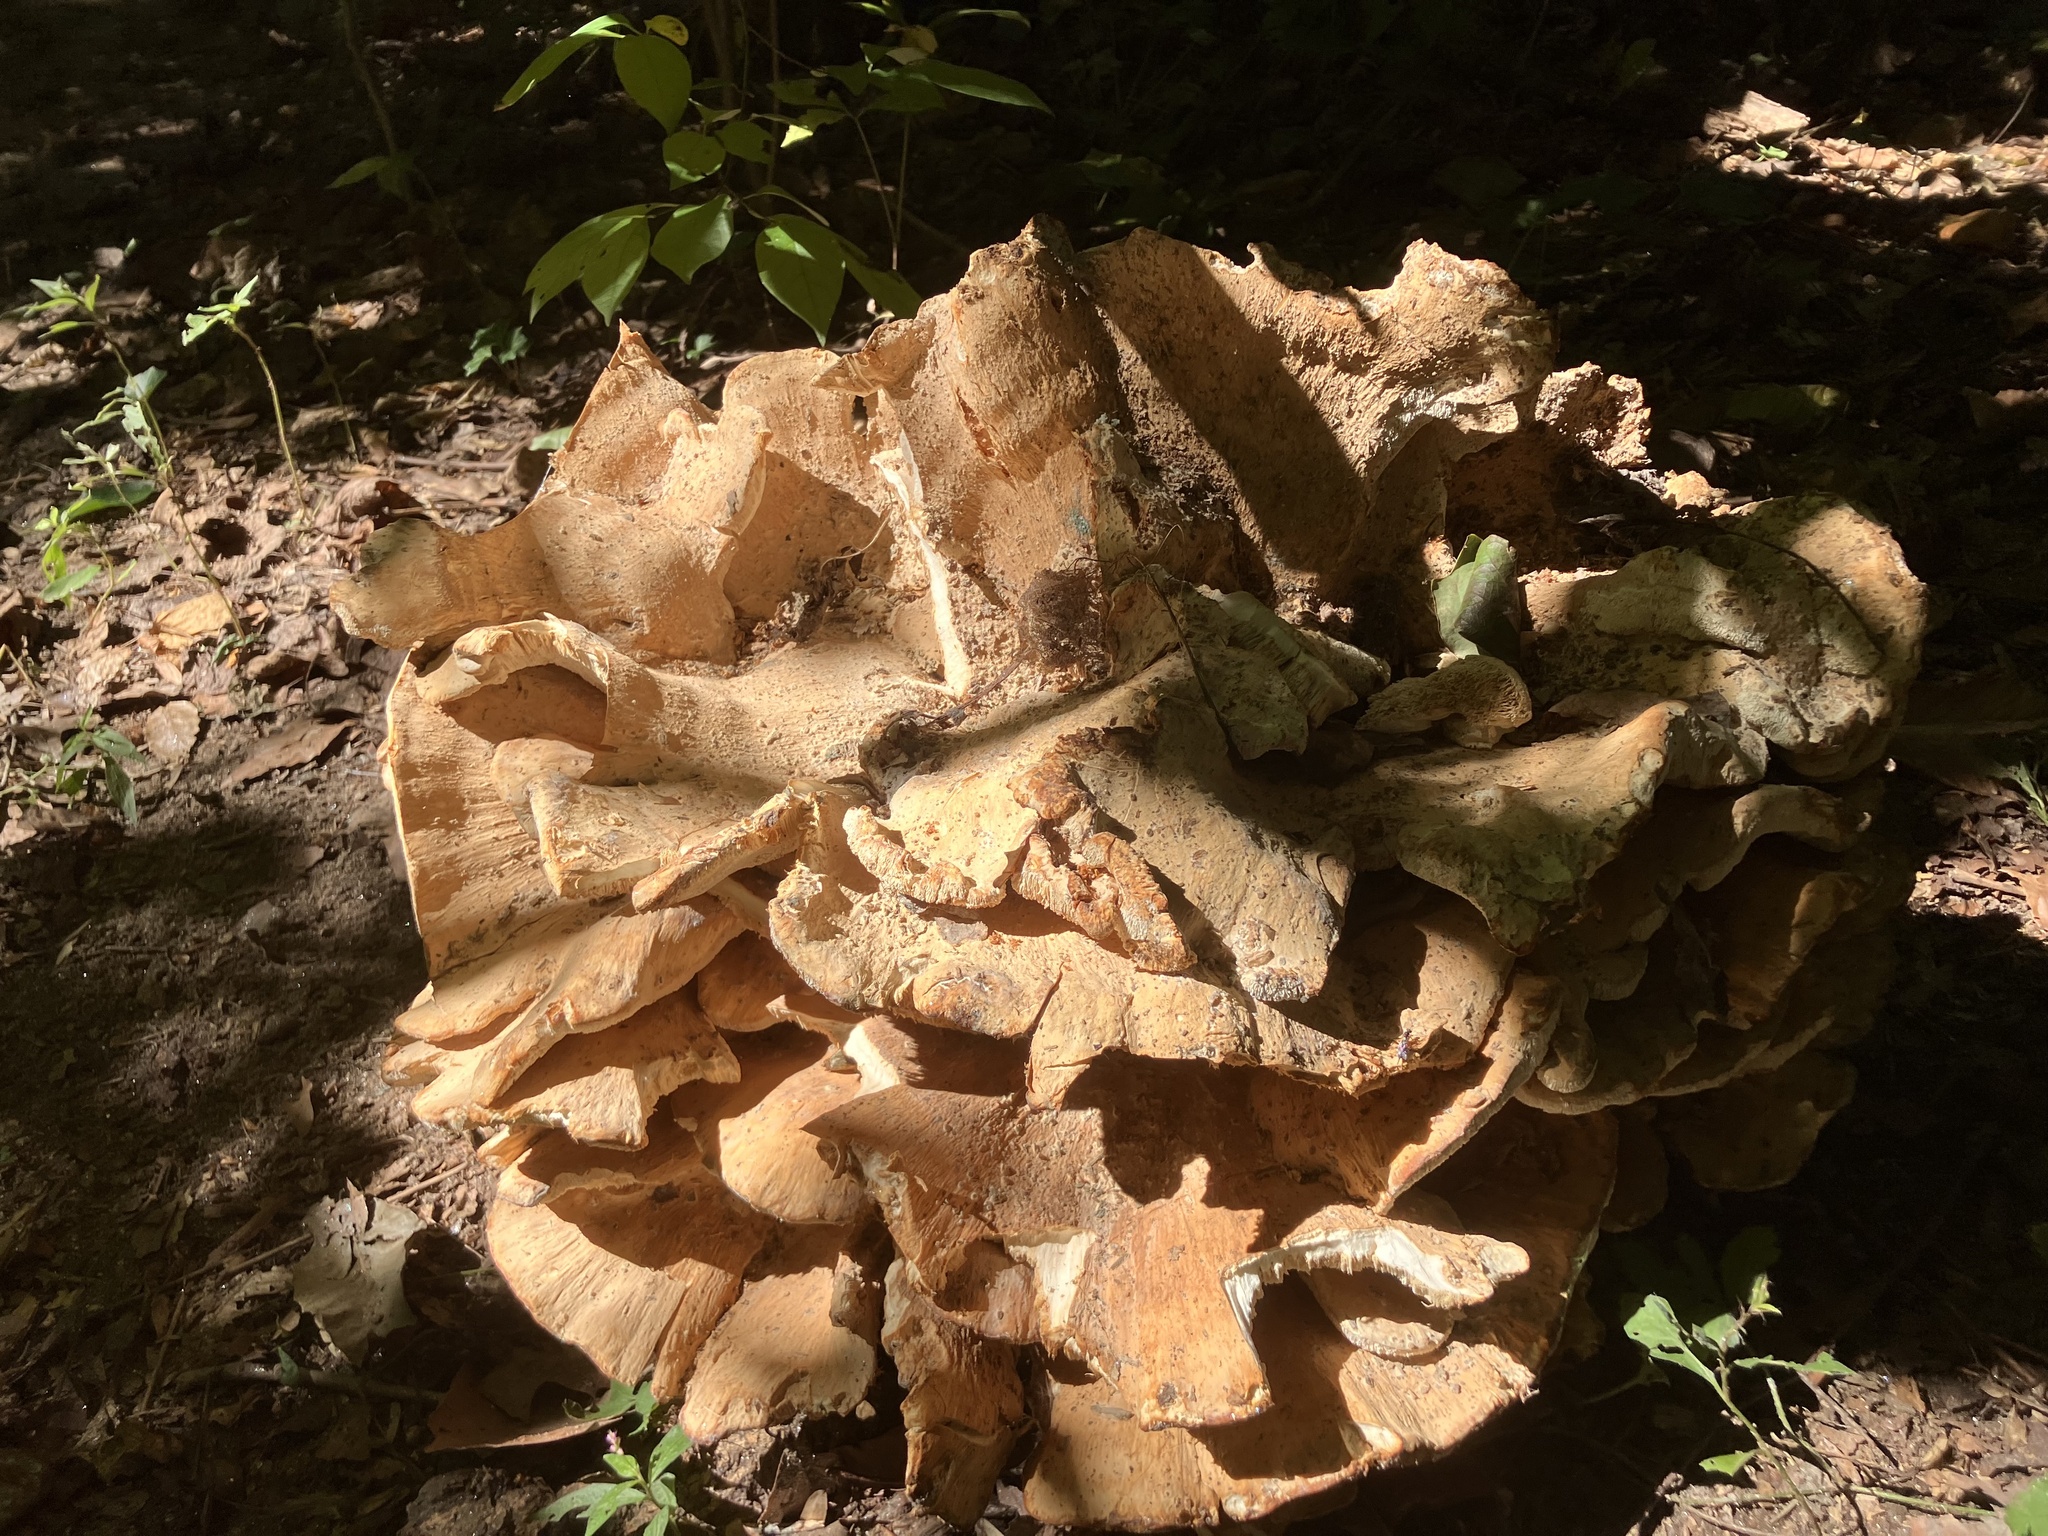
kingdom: Fungi
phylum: Basidiomycota
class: Agaricomycetes
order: Russulales
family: Bondarzewiaceae
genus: Bondarzewia
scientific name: Bondarzewia berkeleyi
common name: Berkeley's polypore
